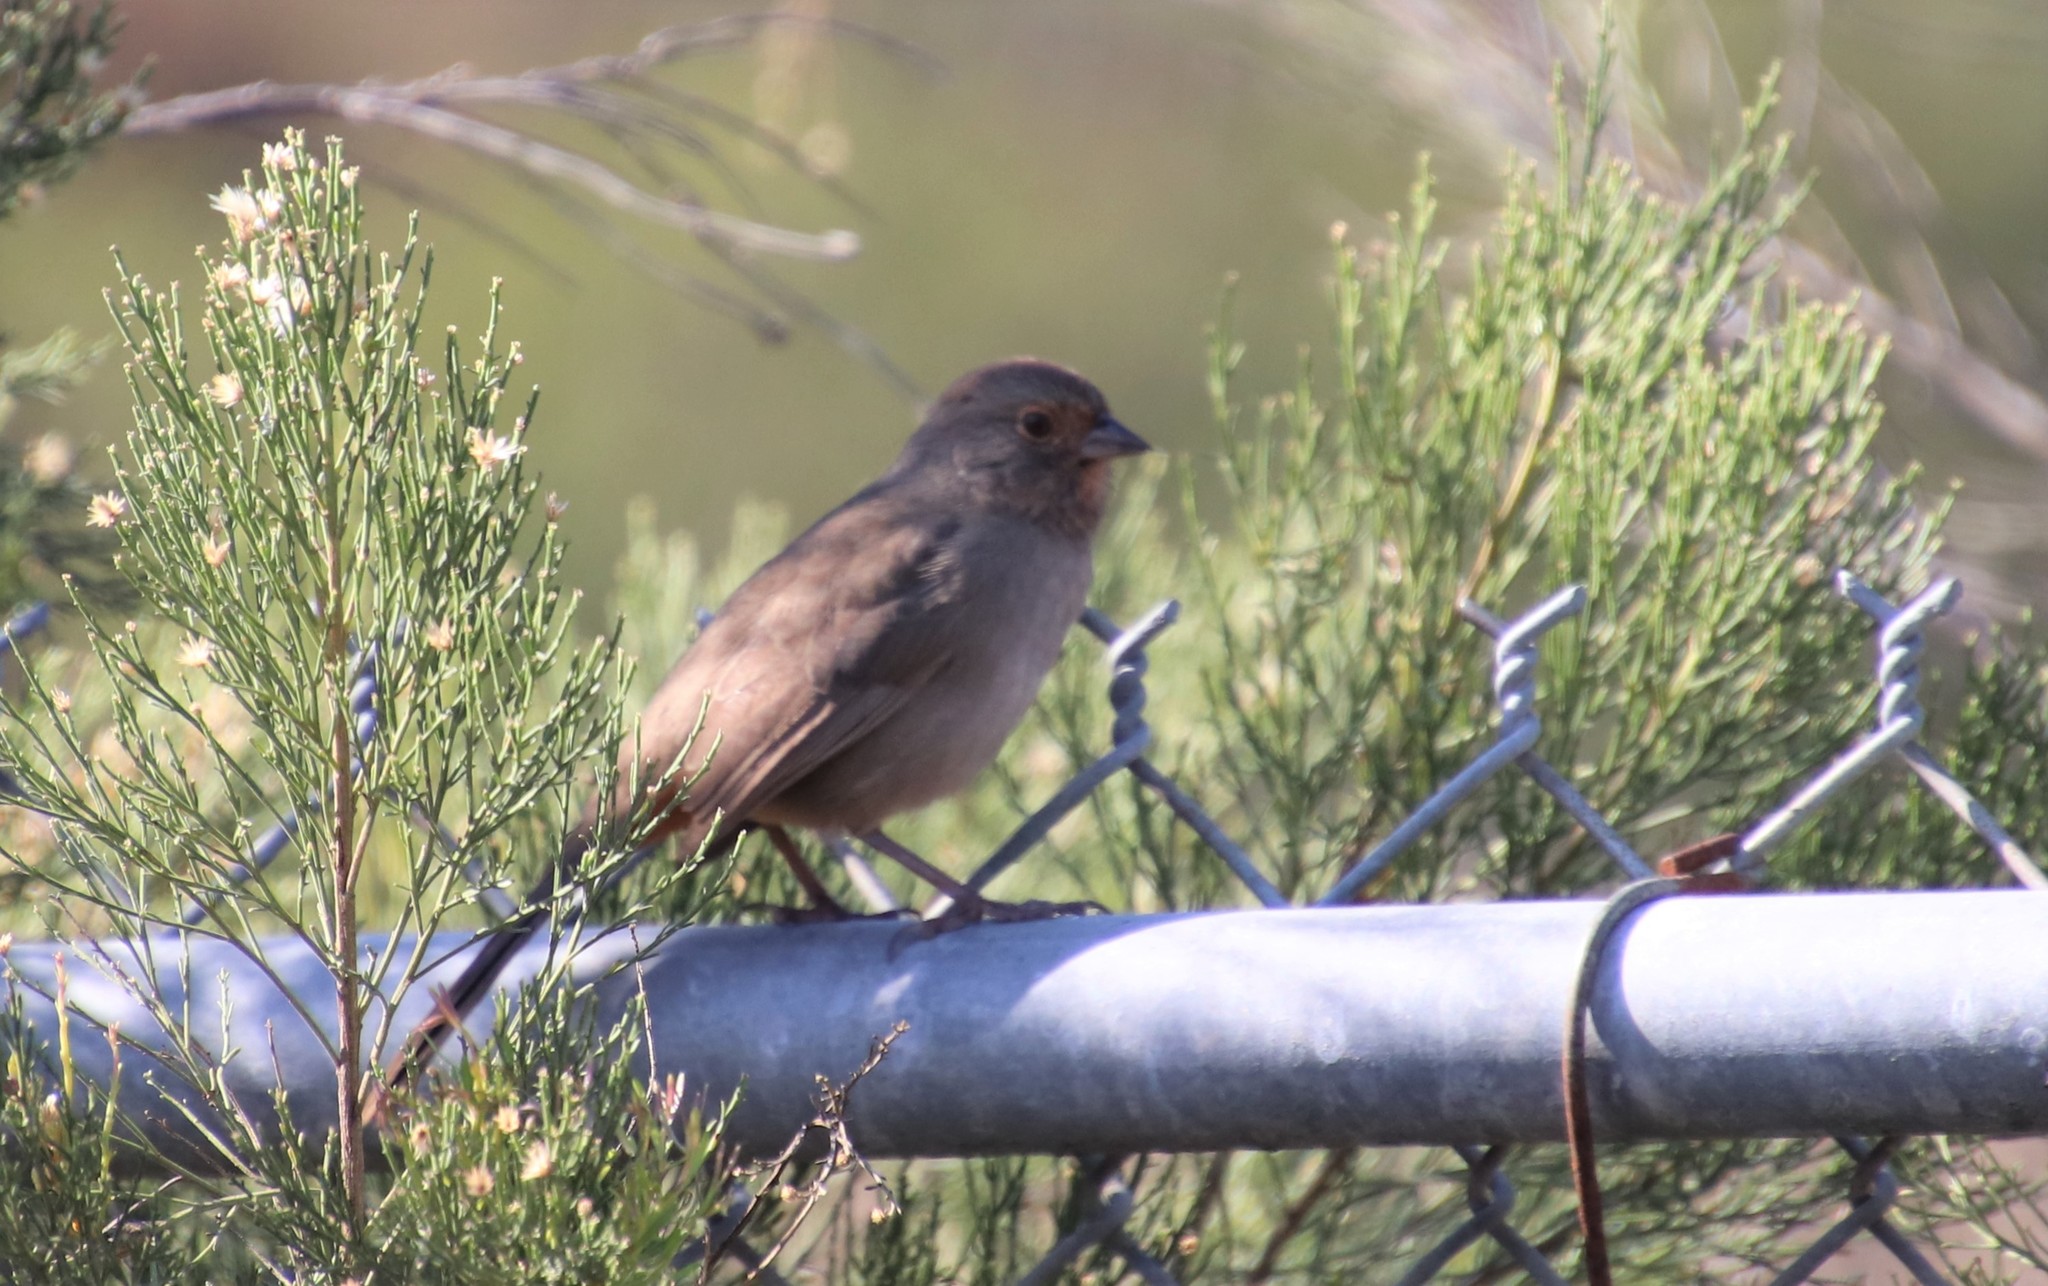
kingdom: Animalia
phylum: Chordata
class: Aves
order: Passeriformes
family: Passerellidae
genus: Melozone
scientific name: Melozone crissalis
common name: California towhee
